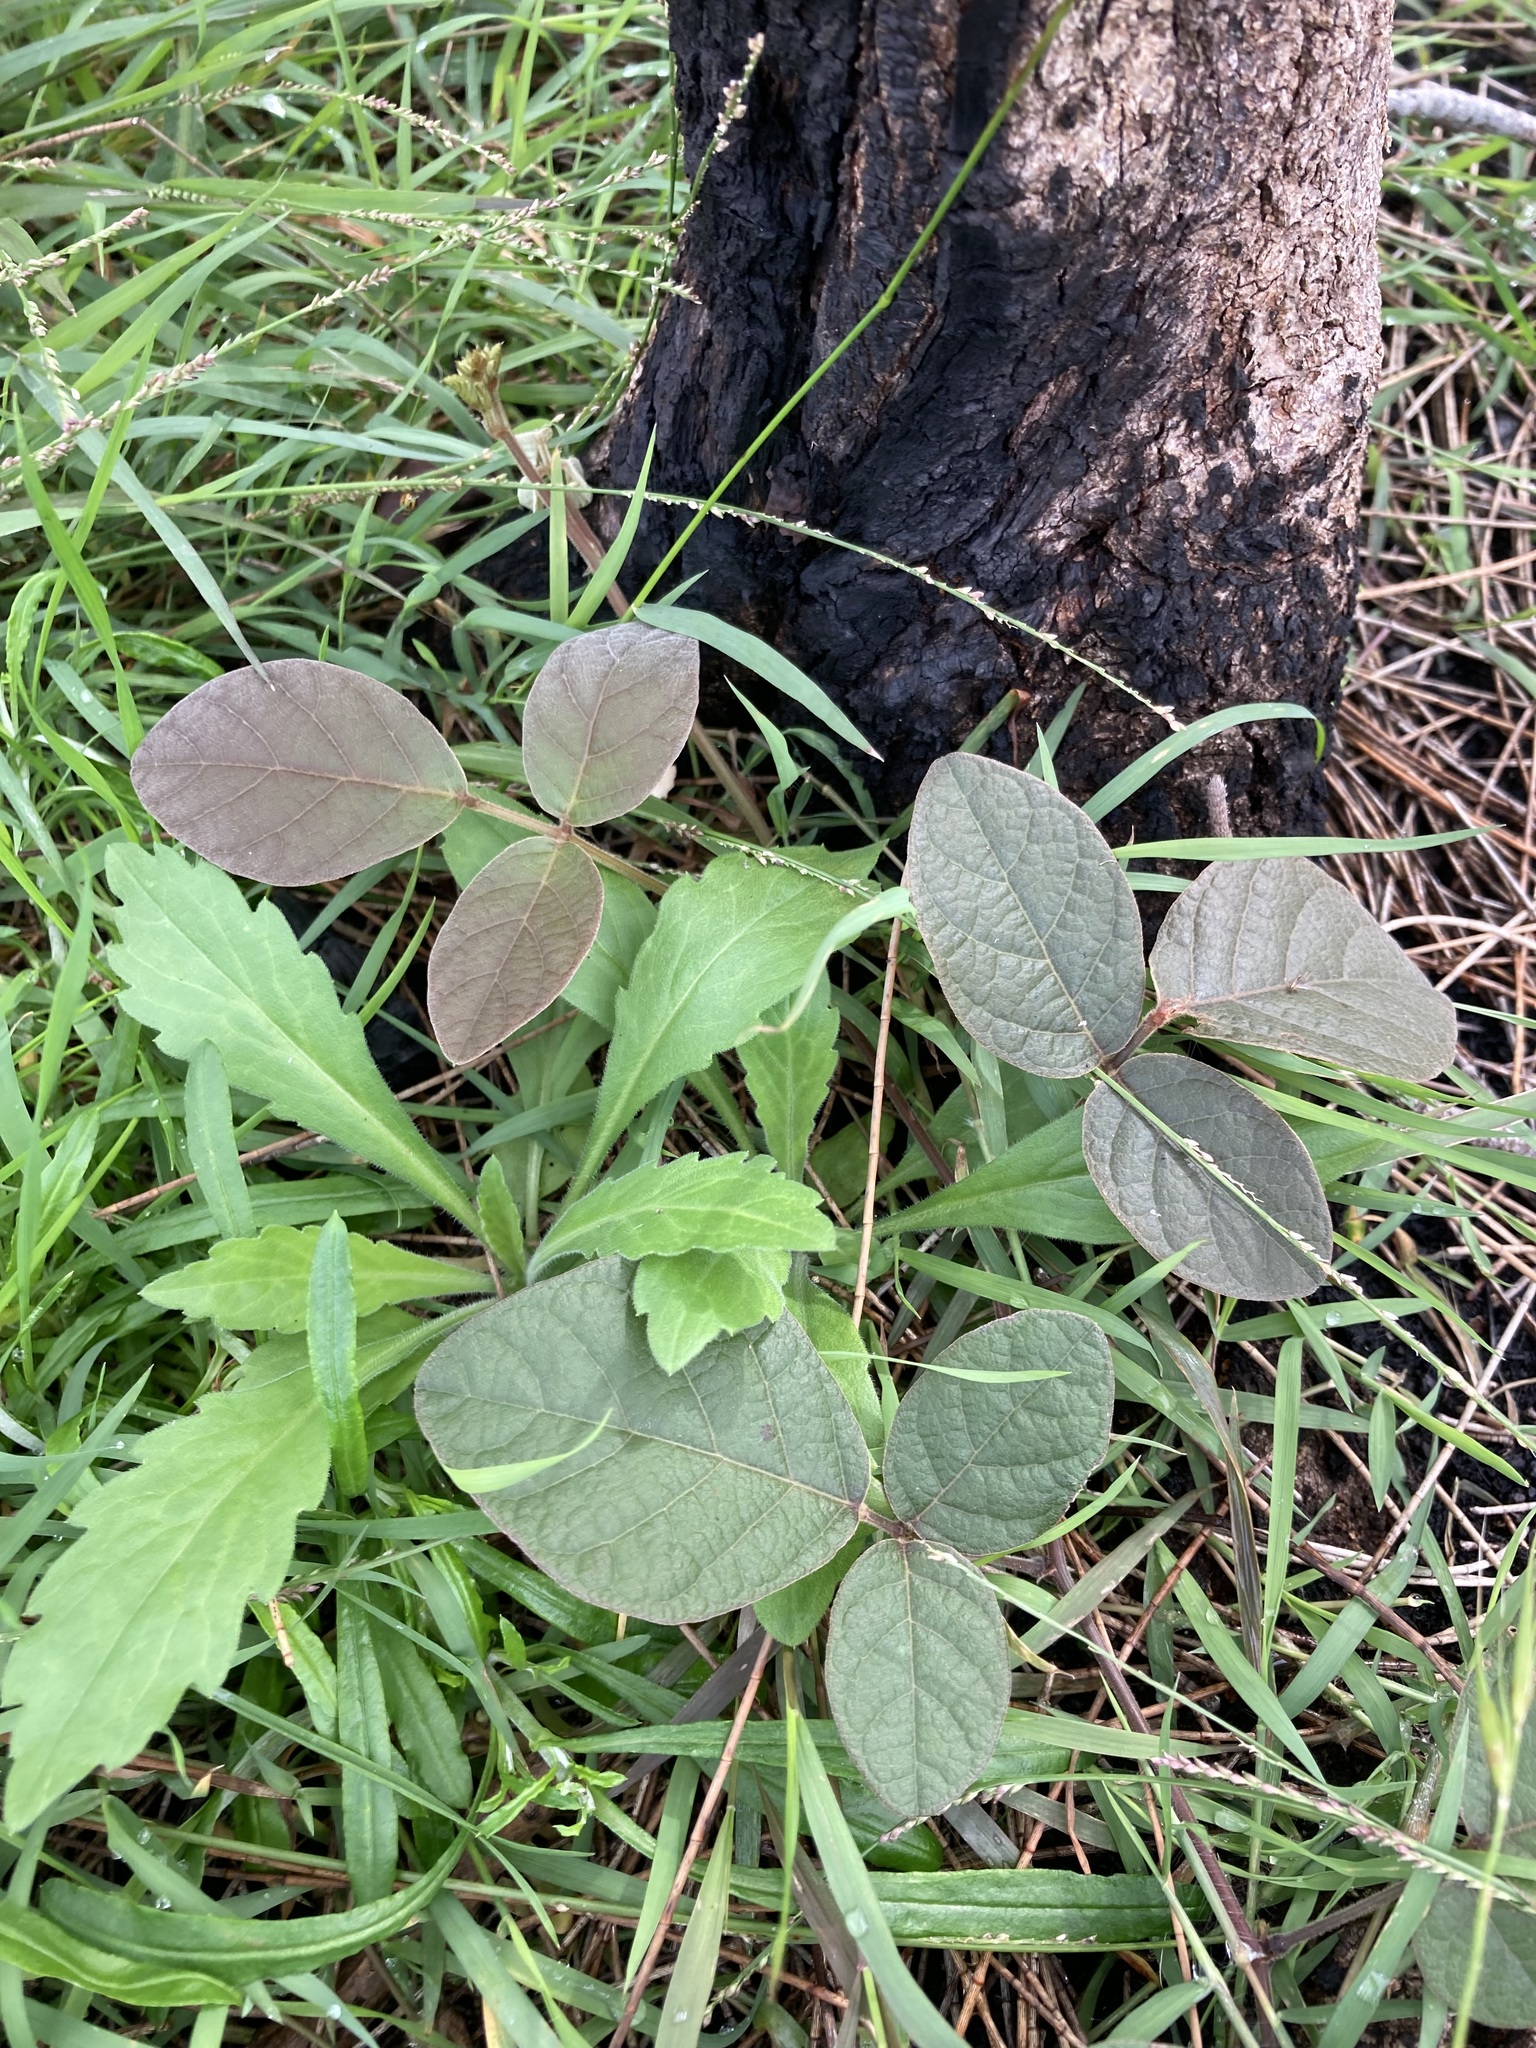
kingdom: Plantae
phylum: Tracheophyta
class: Magnoliopsida
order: Fabales
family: Fabaceae
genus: Kennedia
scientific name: Kennedia rubicunda
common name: Red kennedy-pea
